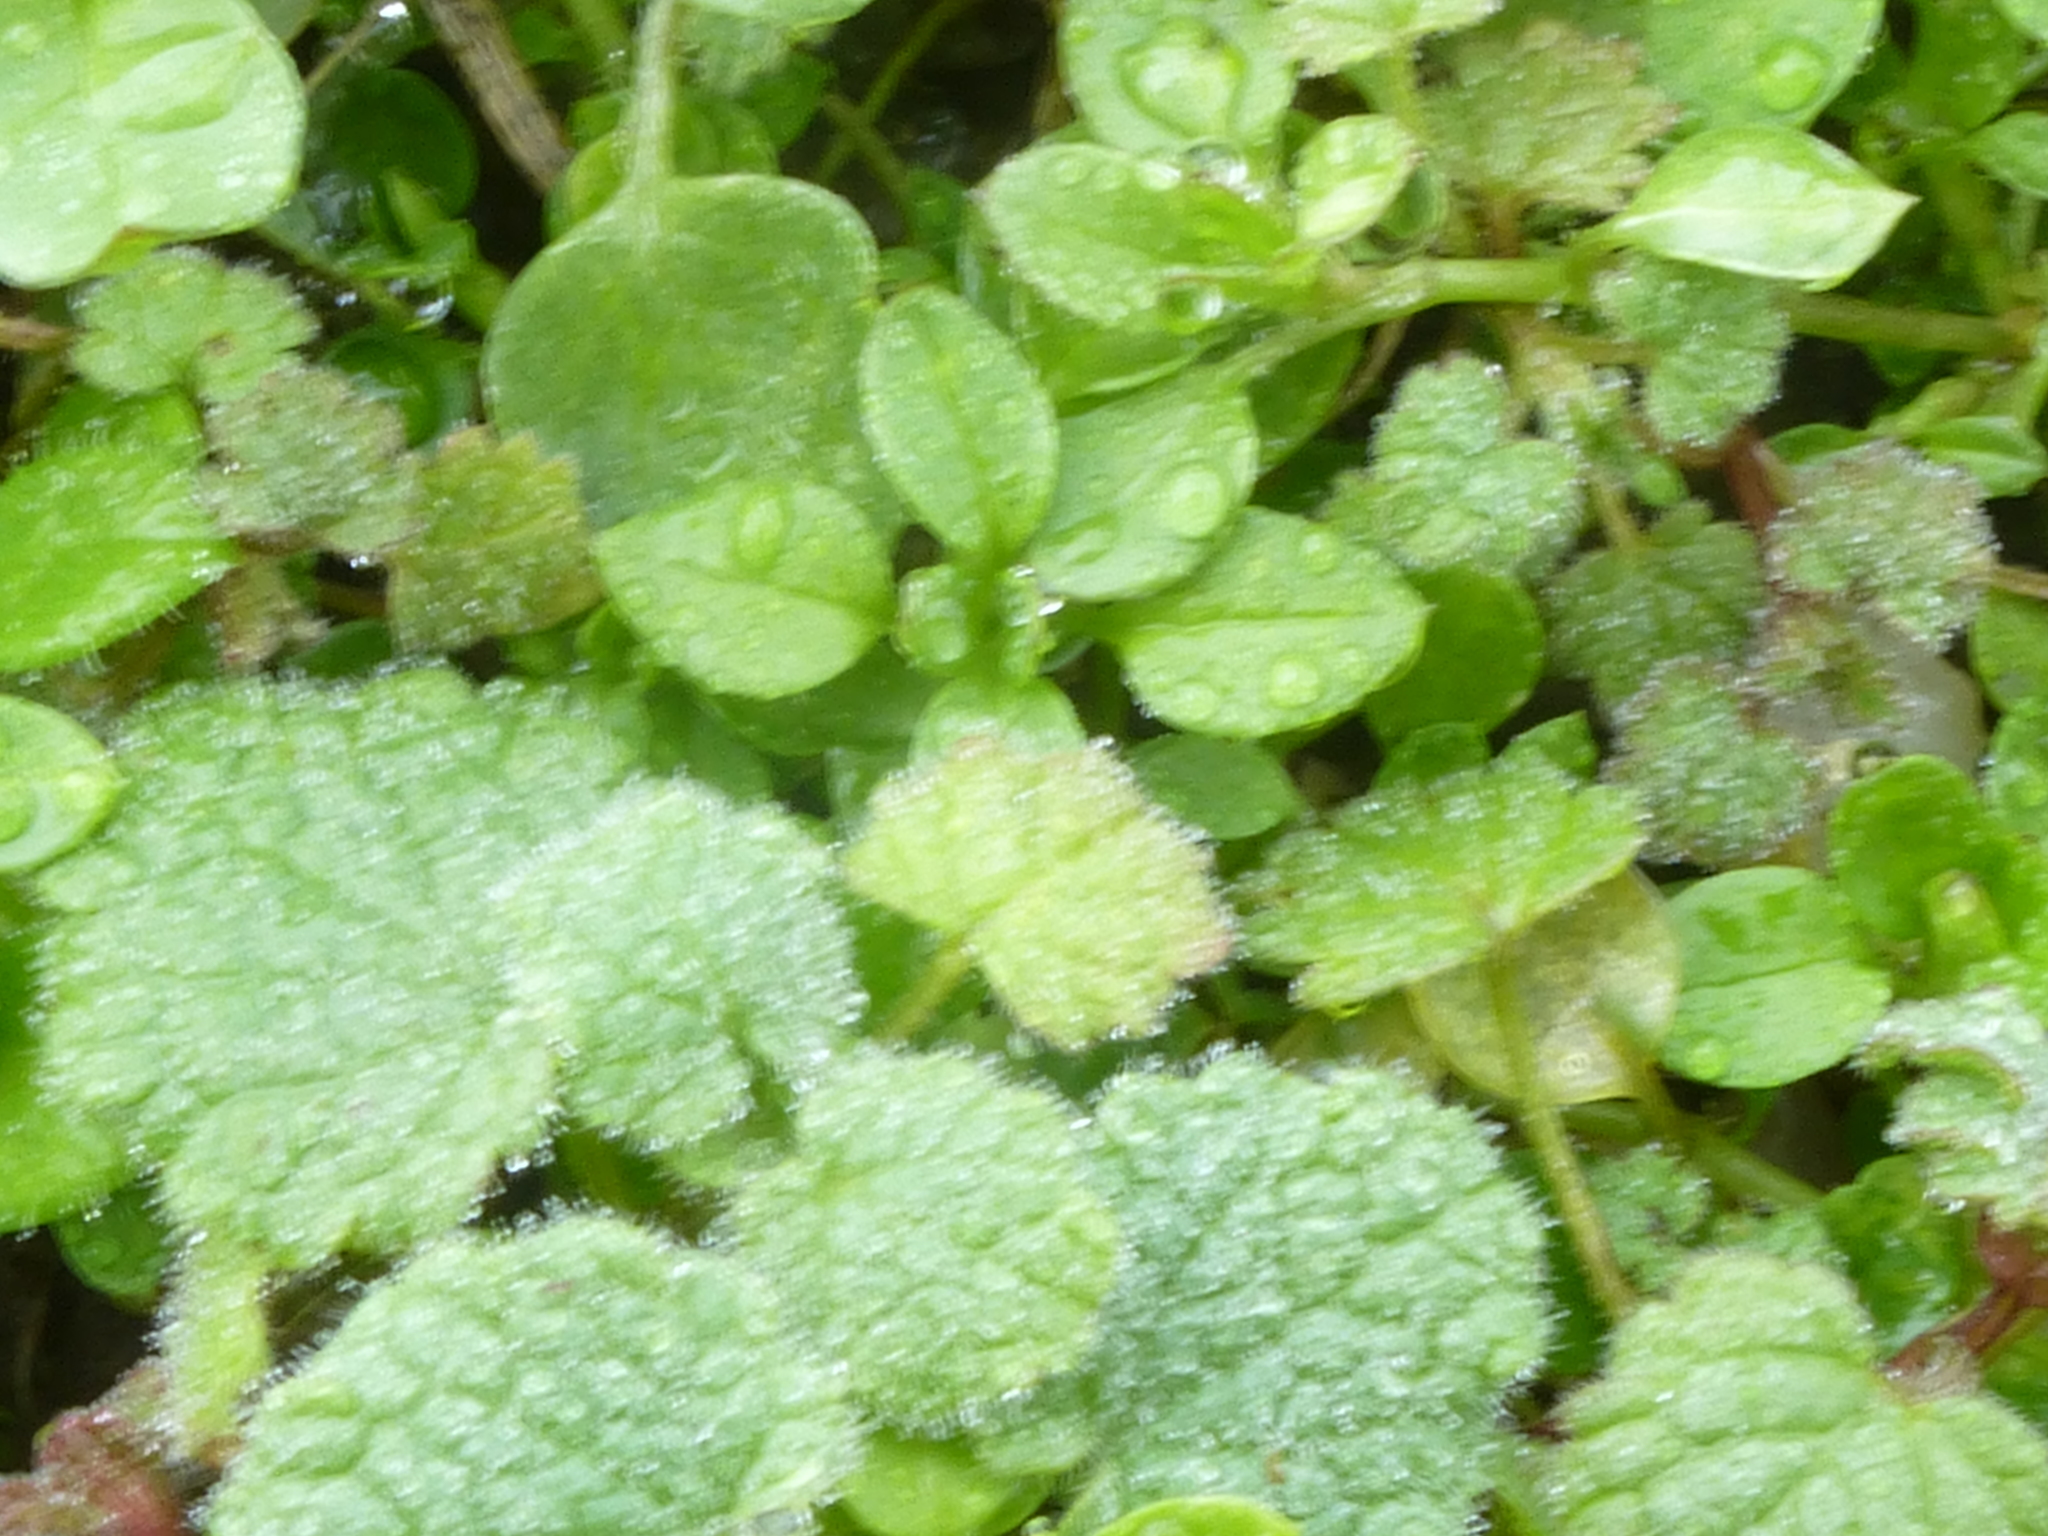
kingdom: Plantae
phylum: Tracheophyta
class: Magnoliopsida
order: Lamiales
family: Lamiaceae
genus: Lamium
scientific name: Lamium purpureum
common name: Red dead-nettle
